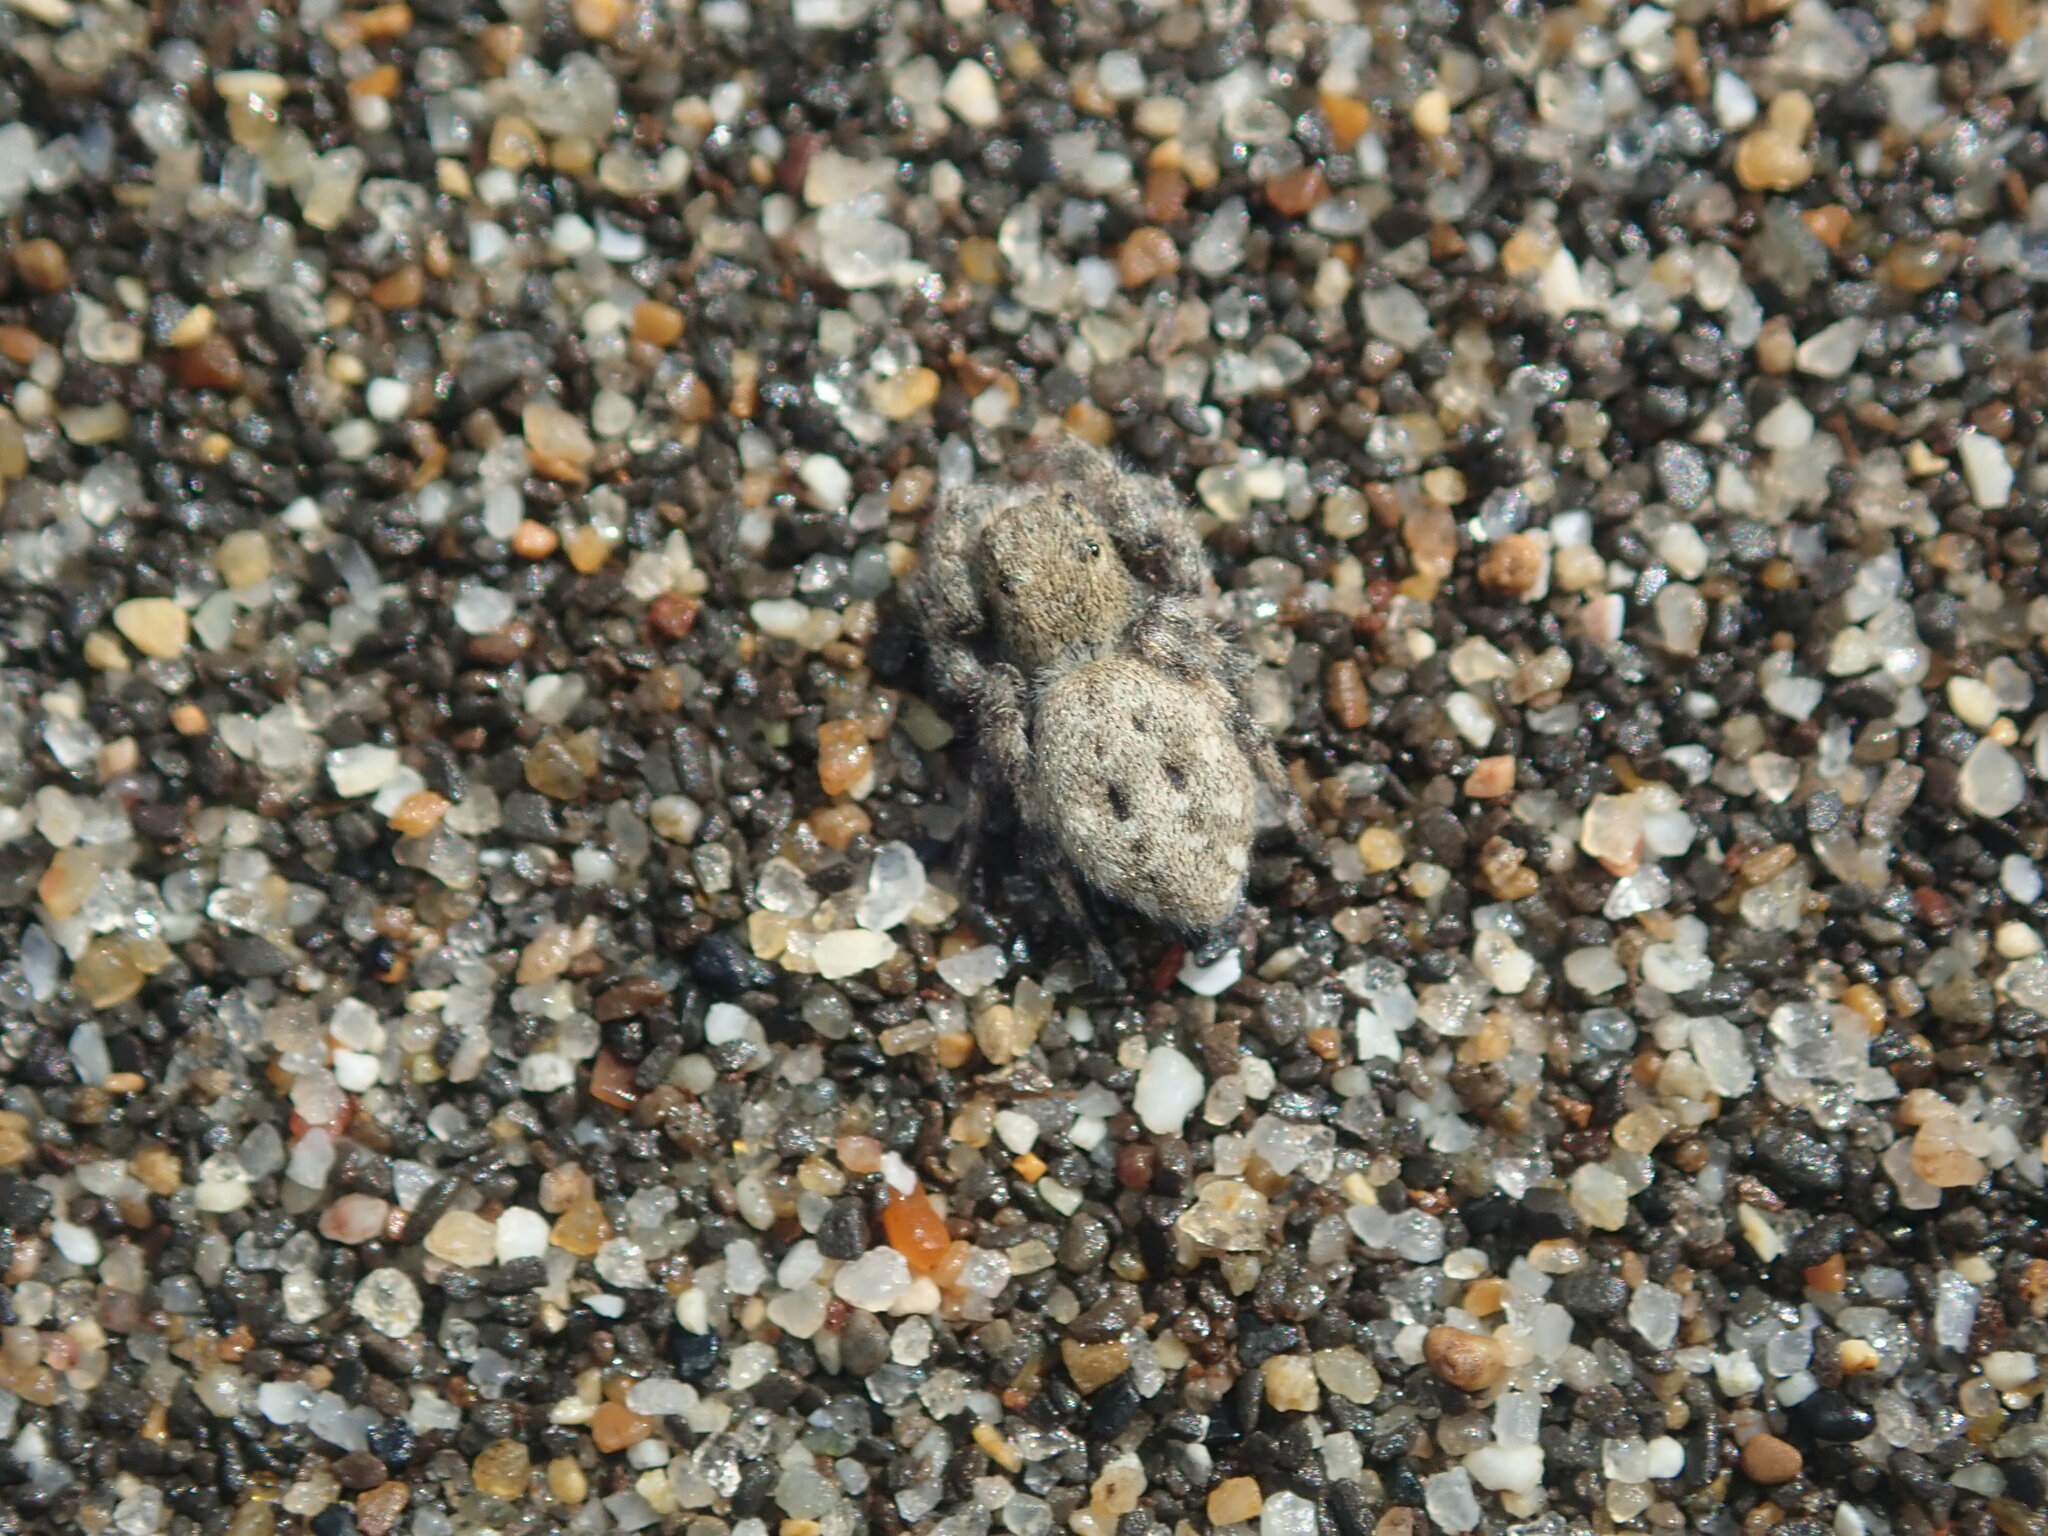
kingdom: Animalia
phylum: Arthropoda
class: Arachnida
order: Araneae
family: Salticidae
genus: Terralonus
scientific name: Terralonus californicus
